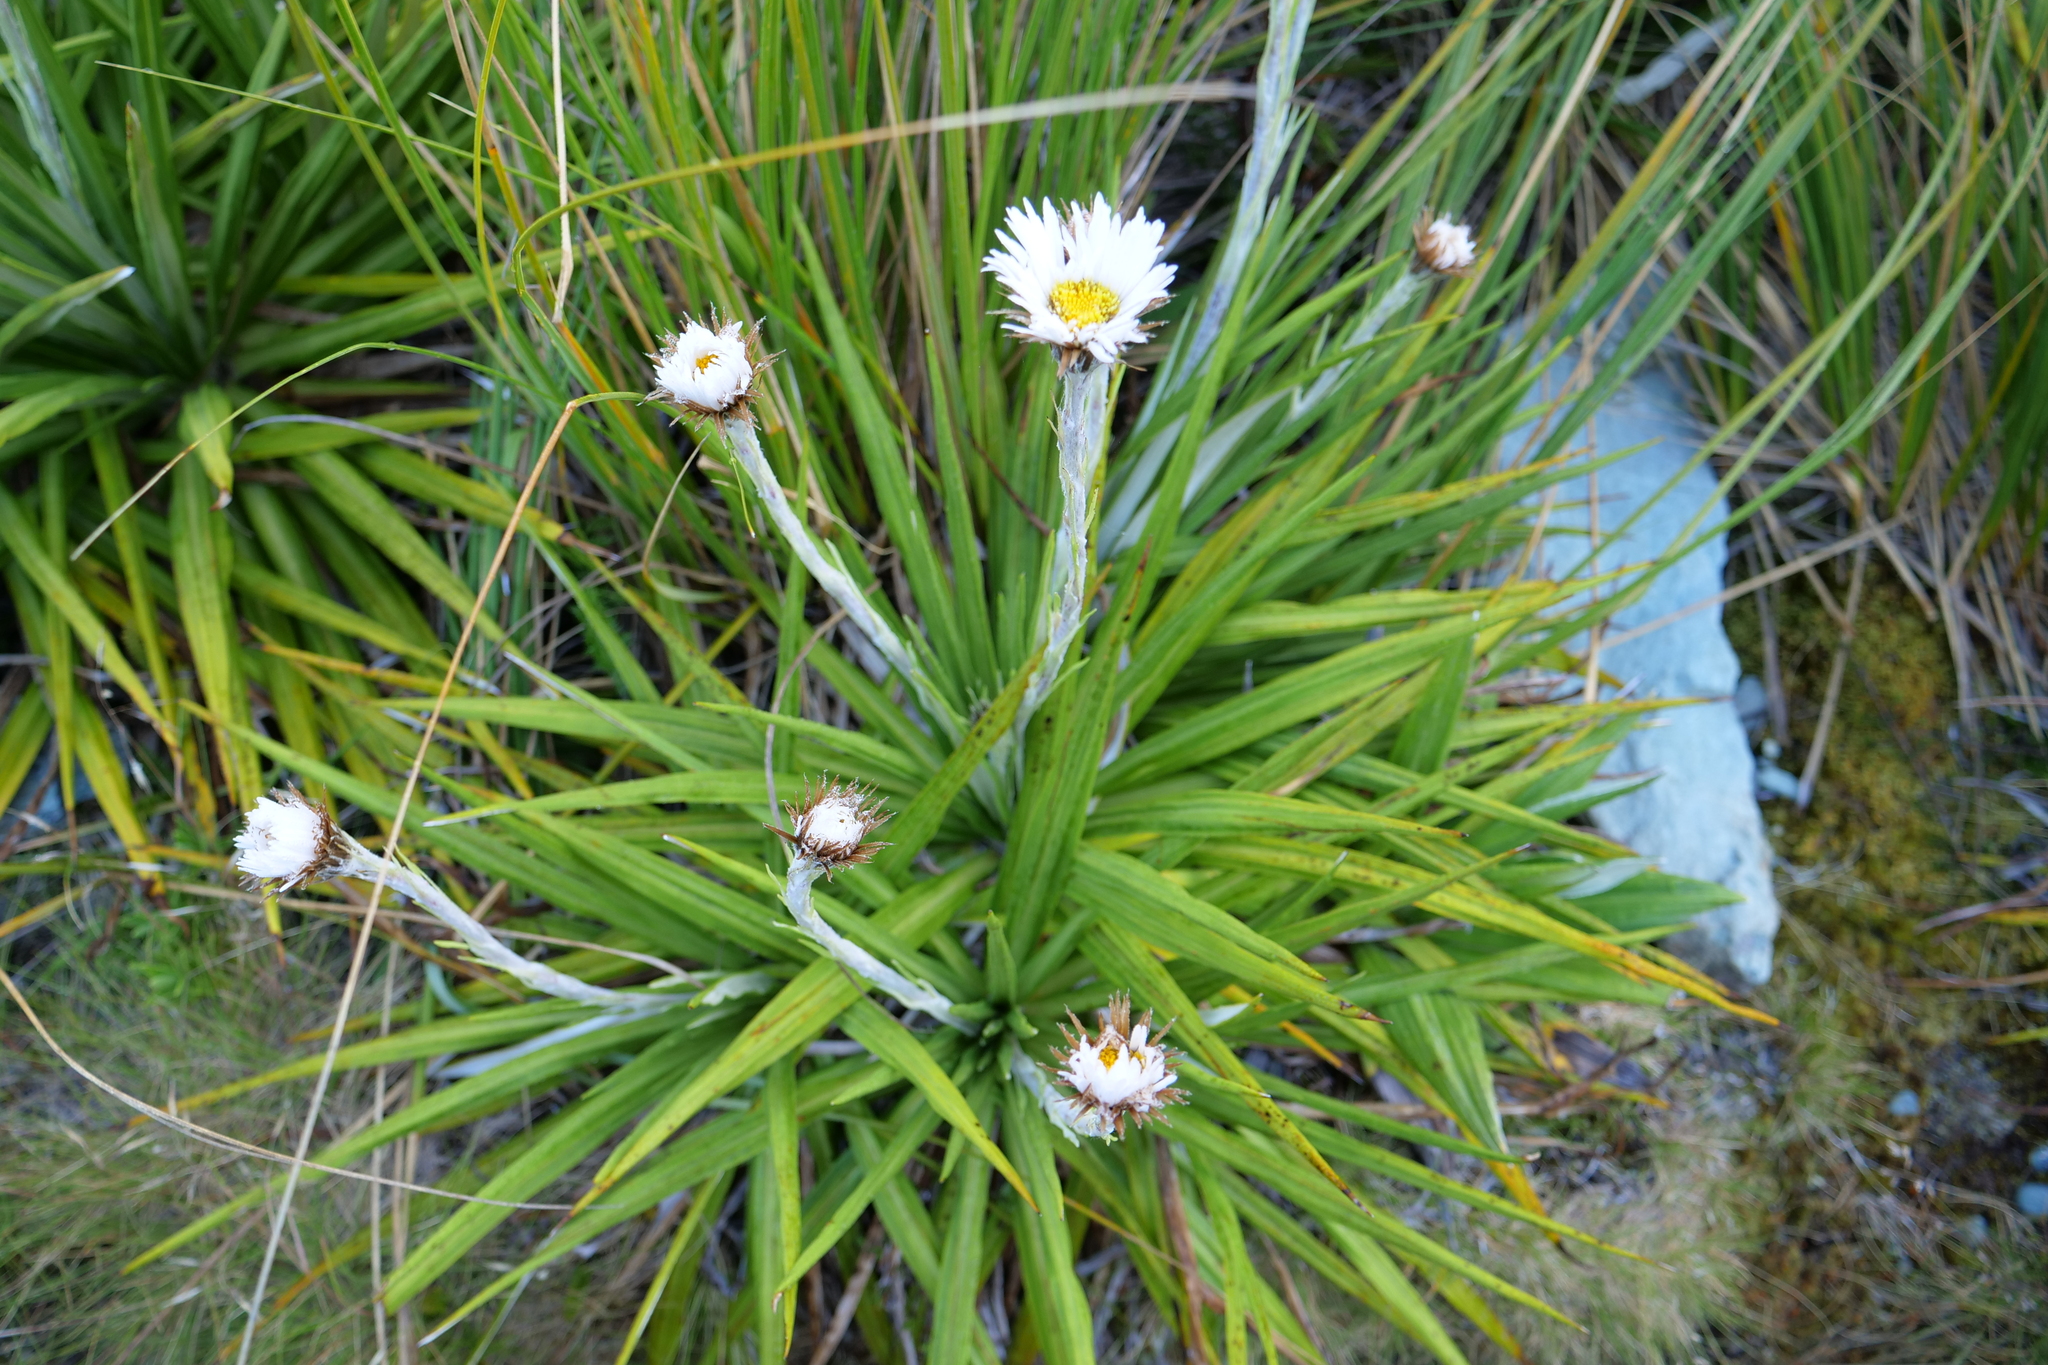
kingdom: Plantae
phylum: Tracheophyta
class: Magnoliopsida
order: Asterales
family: Asteraceae
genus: Celmisia
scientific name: Celmisia petriei
